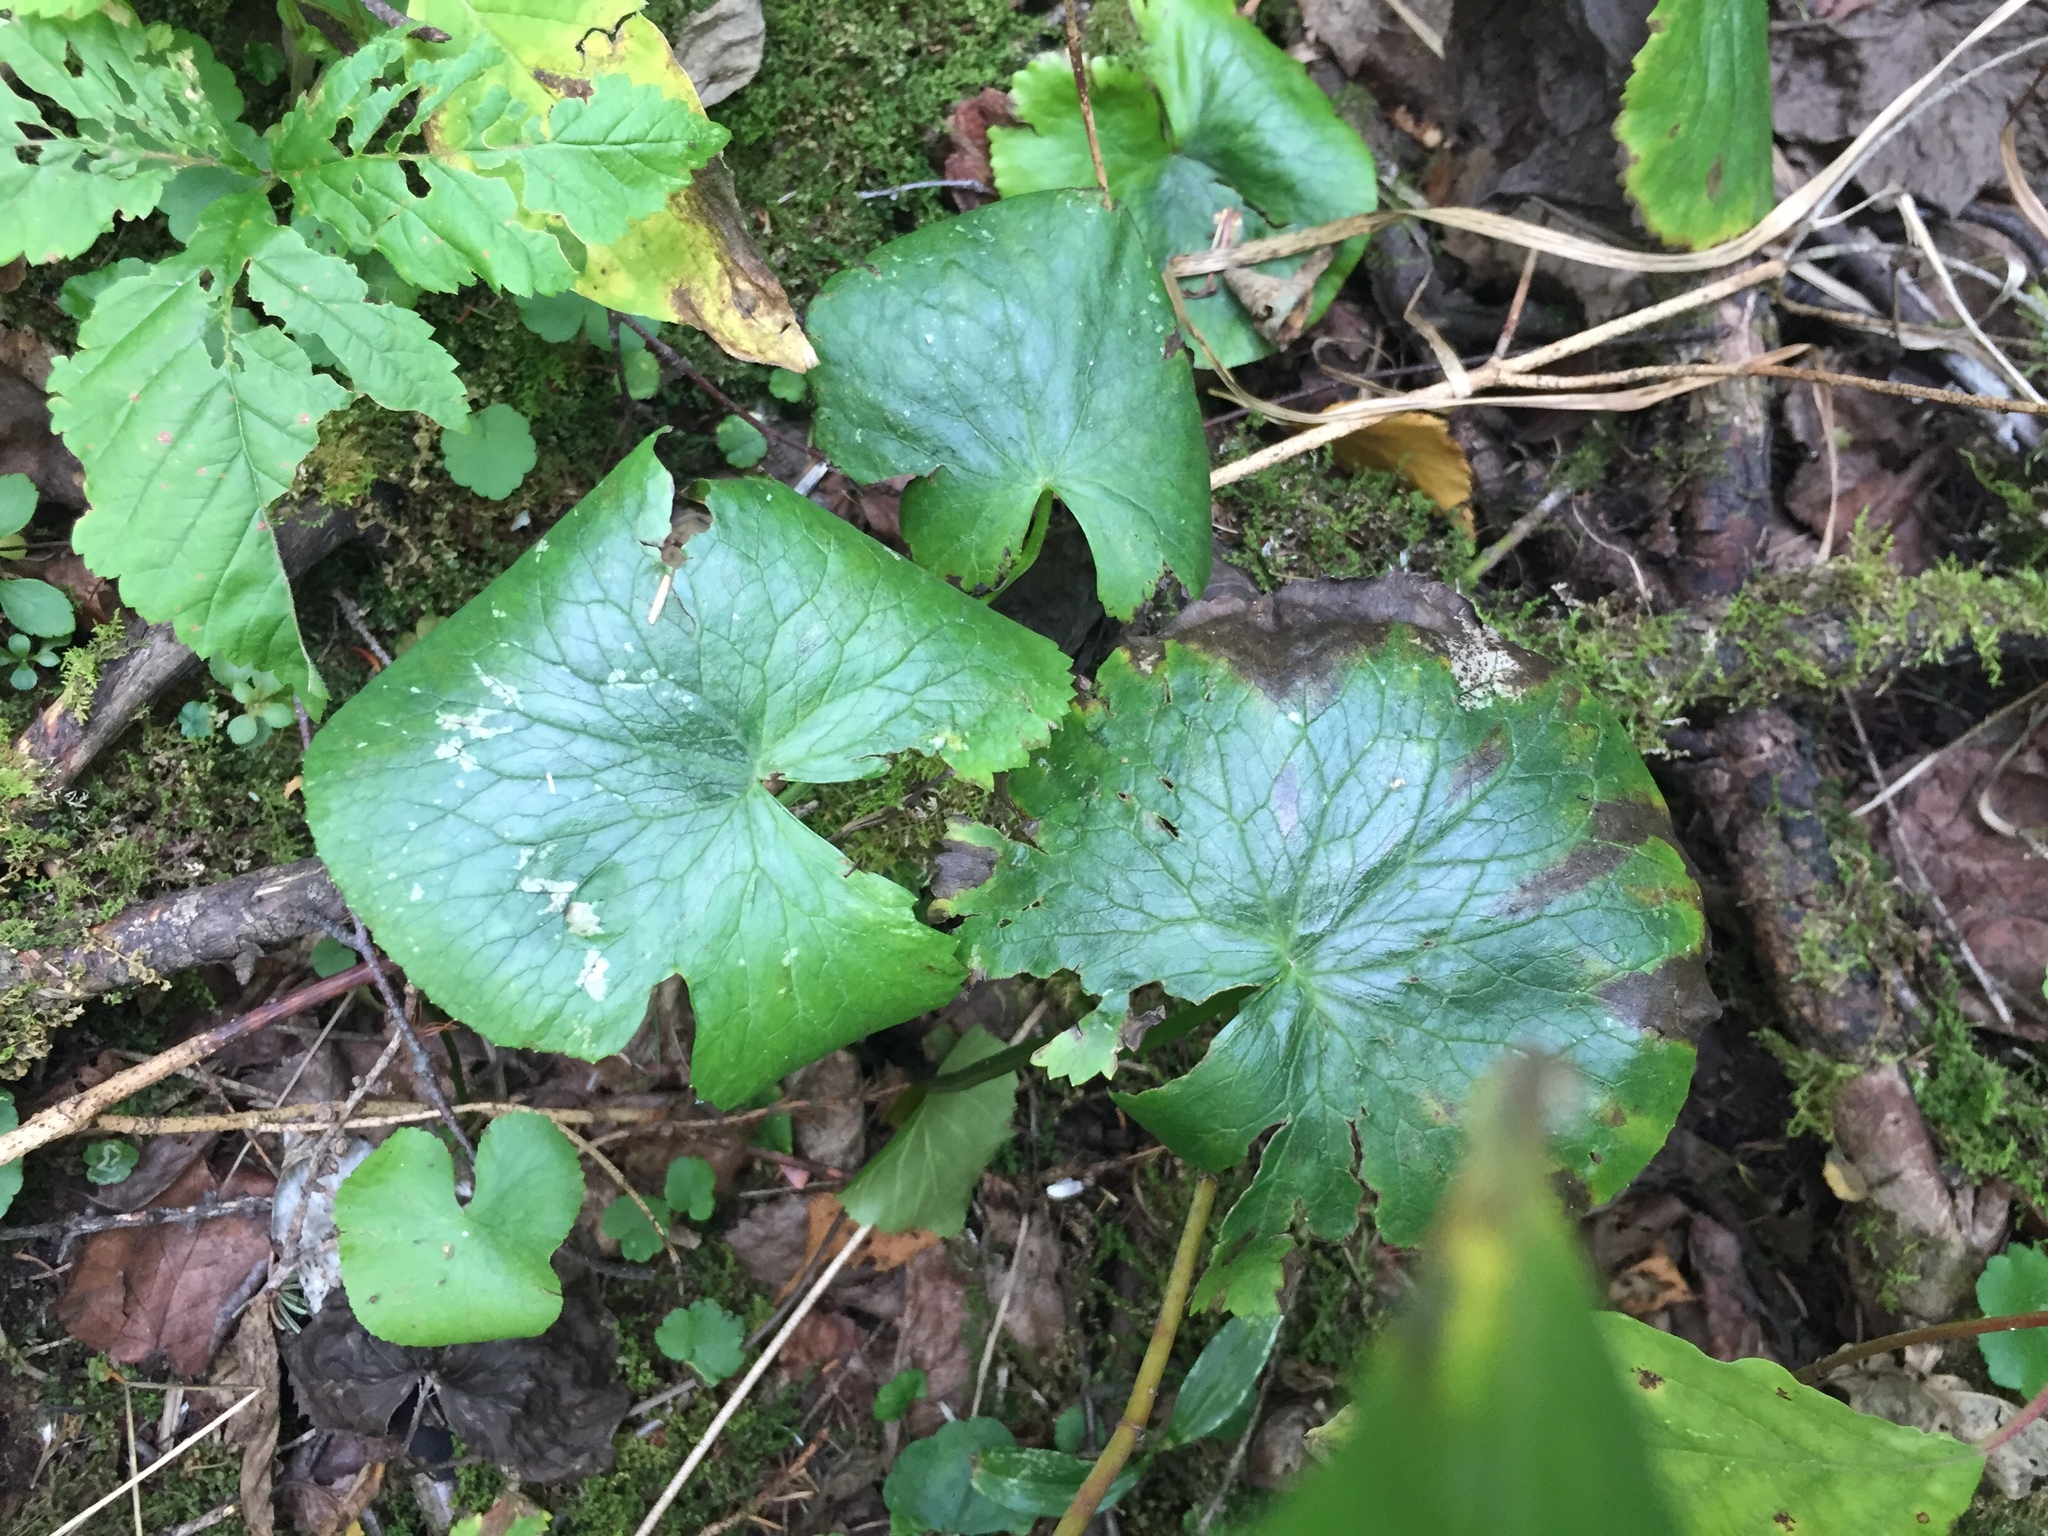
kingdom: Plantae
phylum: Tracheophyta
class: Magnoliopsida
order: Ranunculales
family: Ranunculaceae
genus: Caltha
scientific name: Caltha palustris
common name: Marsh marigold
